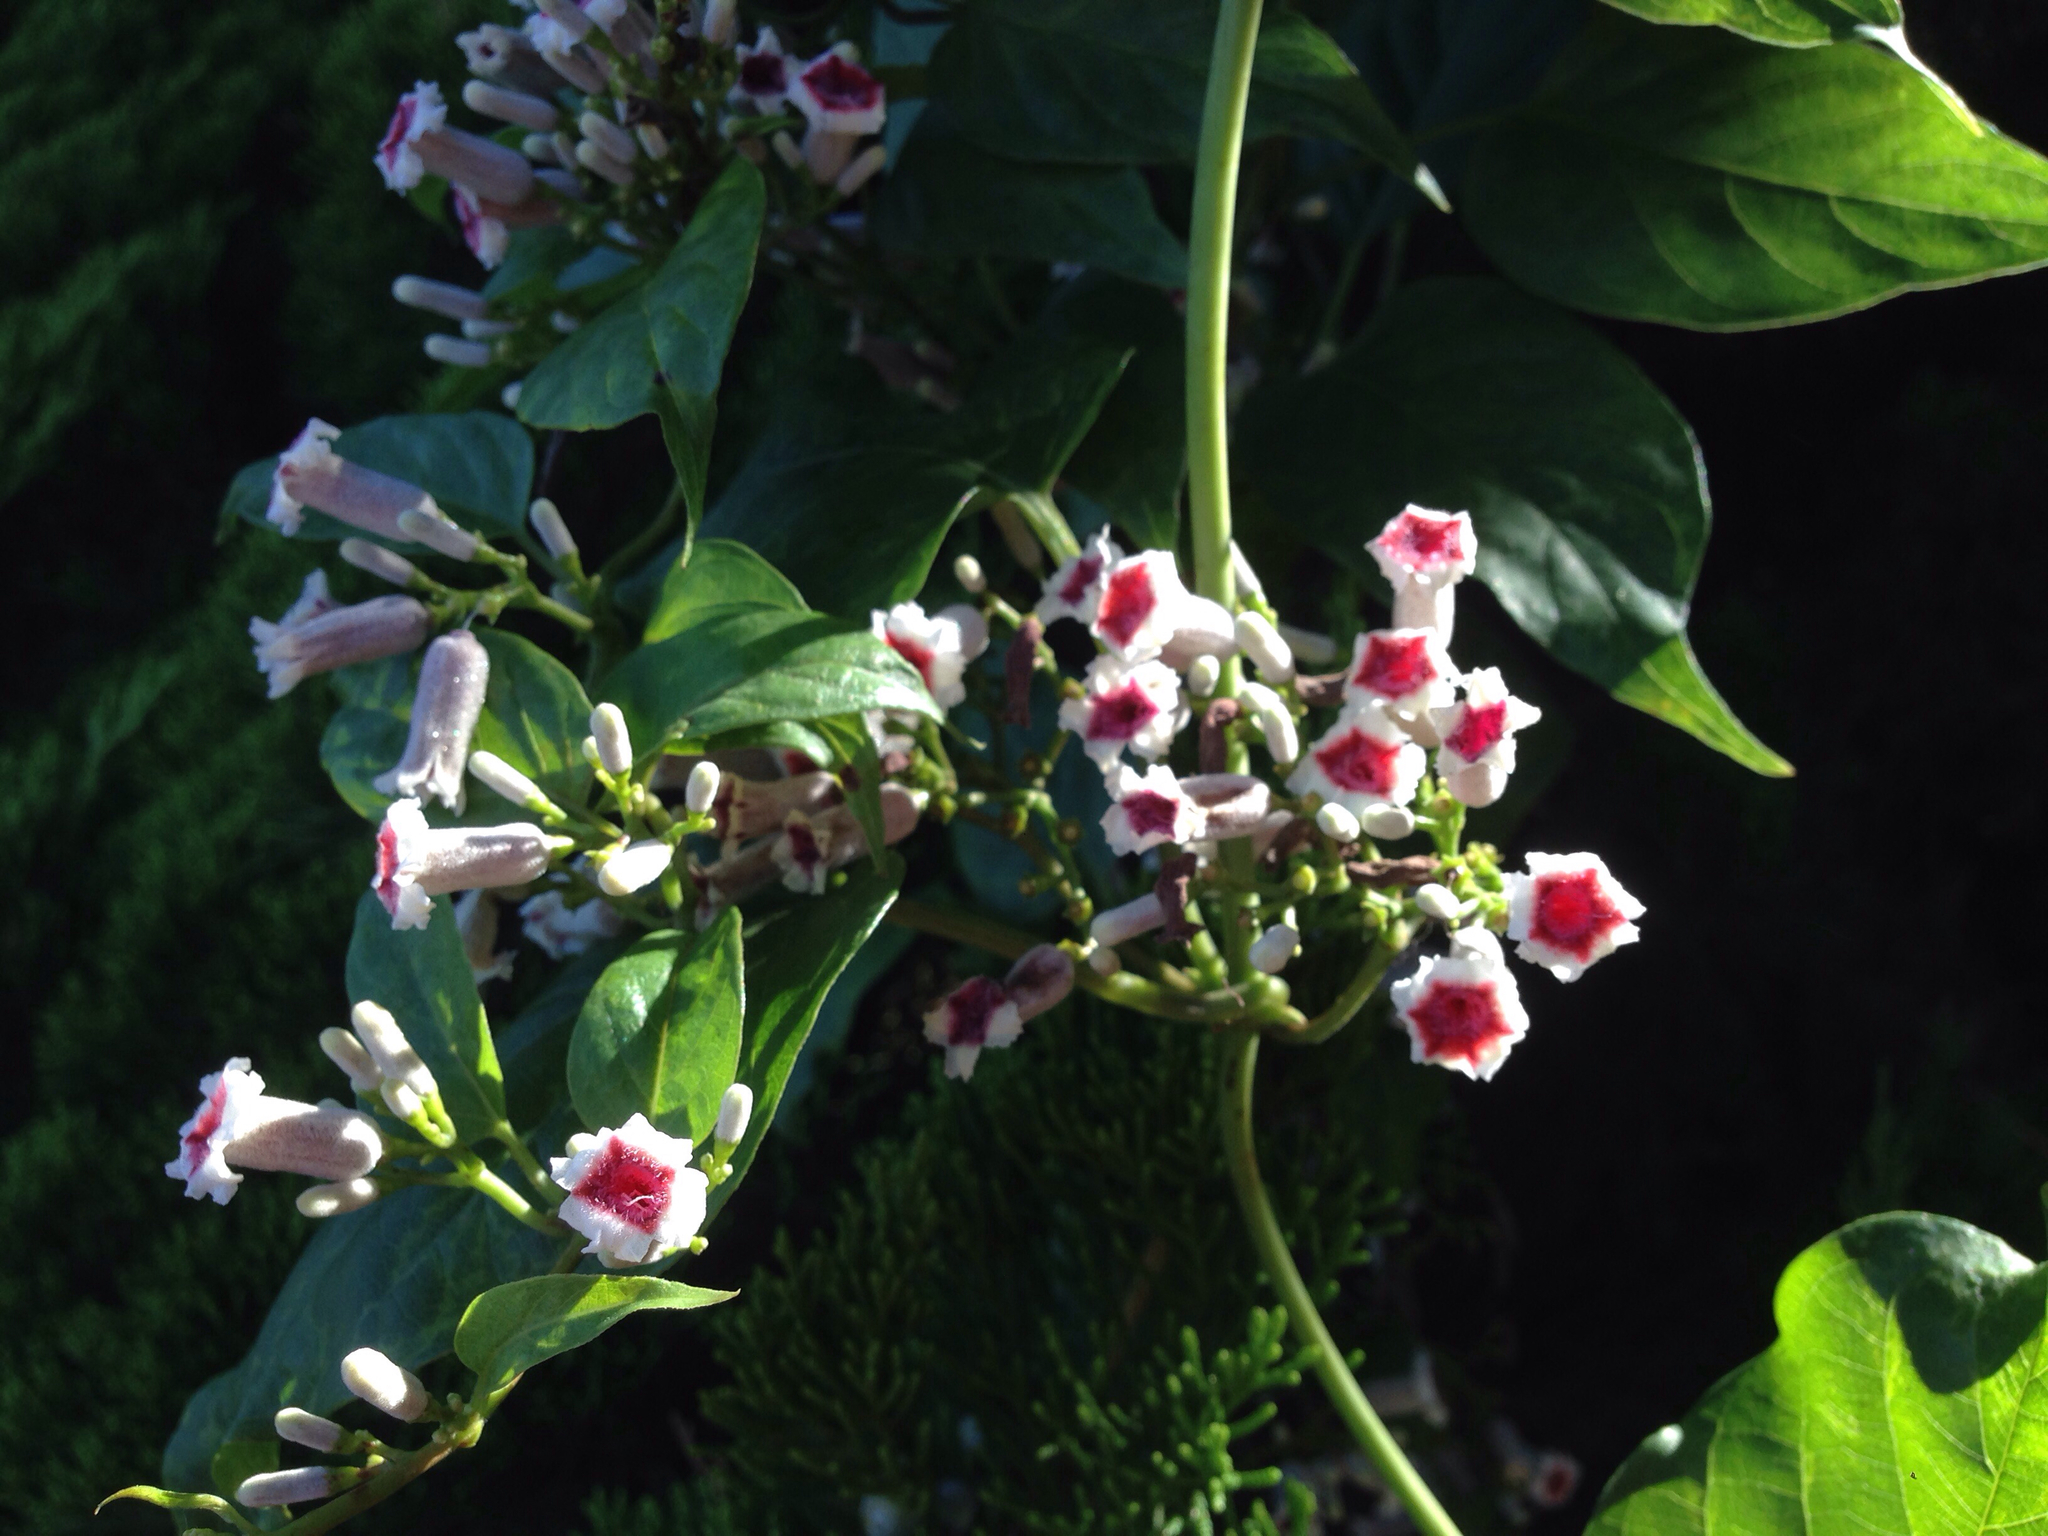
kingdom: Plantae
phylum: Tracheophyta
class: Magnoliopsida
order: Gentianales
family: Rubiaceae
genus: Paederia
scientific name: Paederia foetida
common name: Stinkvine
